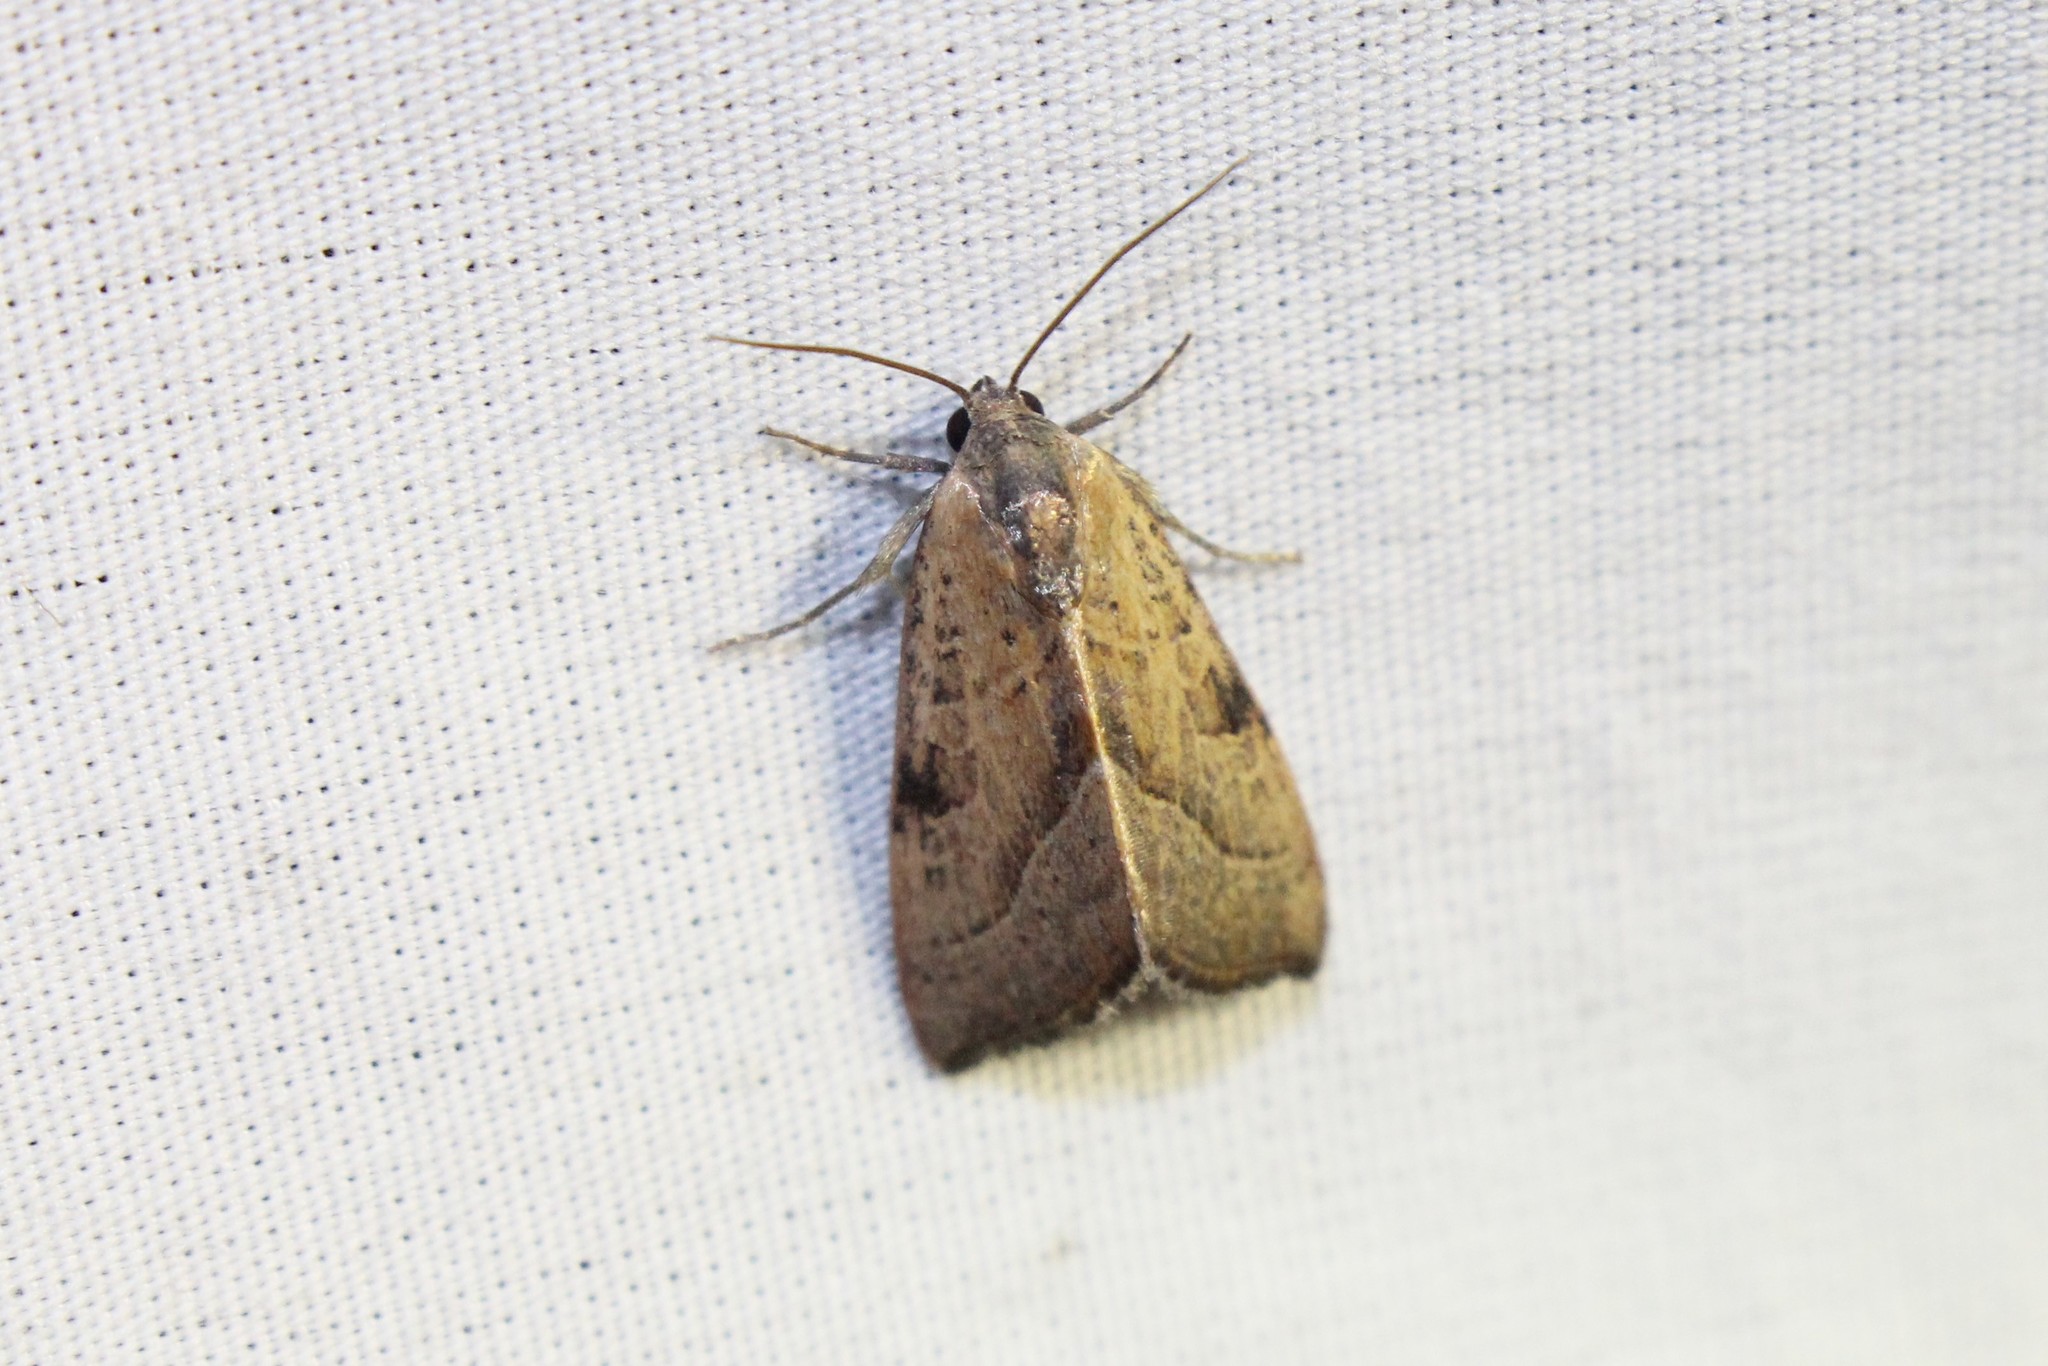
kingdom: Animalia
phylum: Arthropoda
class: Insecta
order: Lepidoptera
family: Noctuidae
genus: Galgula
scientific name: Galgula partita
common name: Wedgeling
